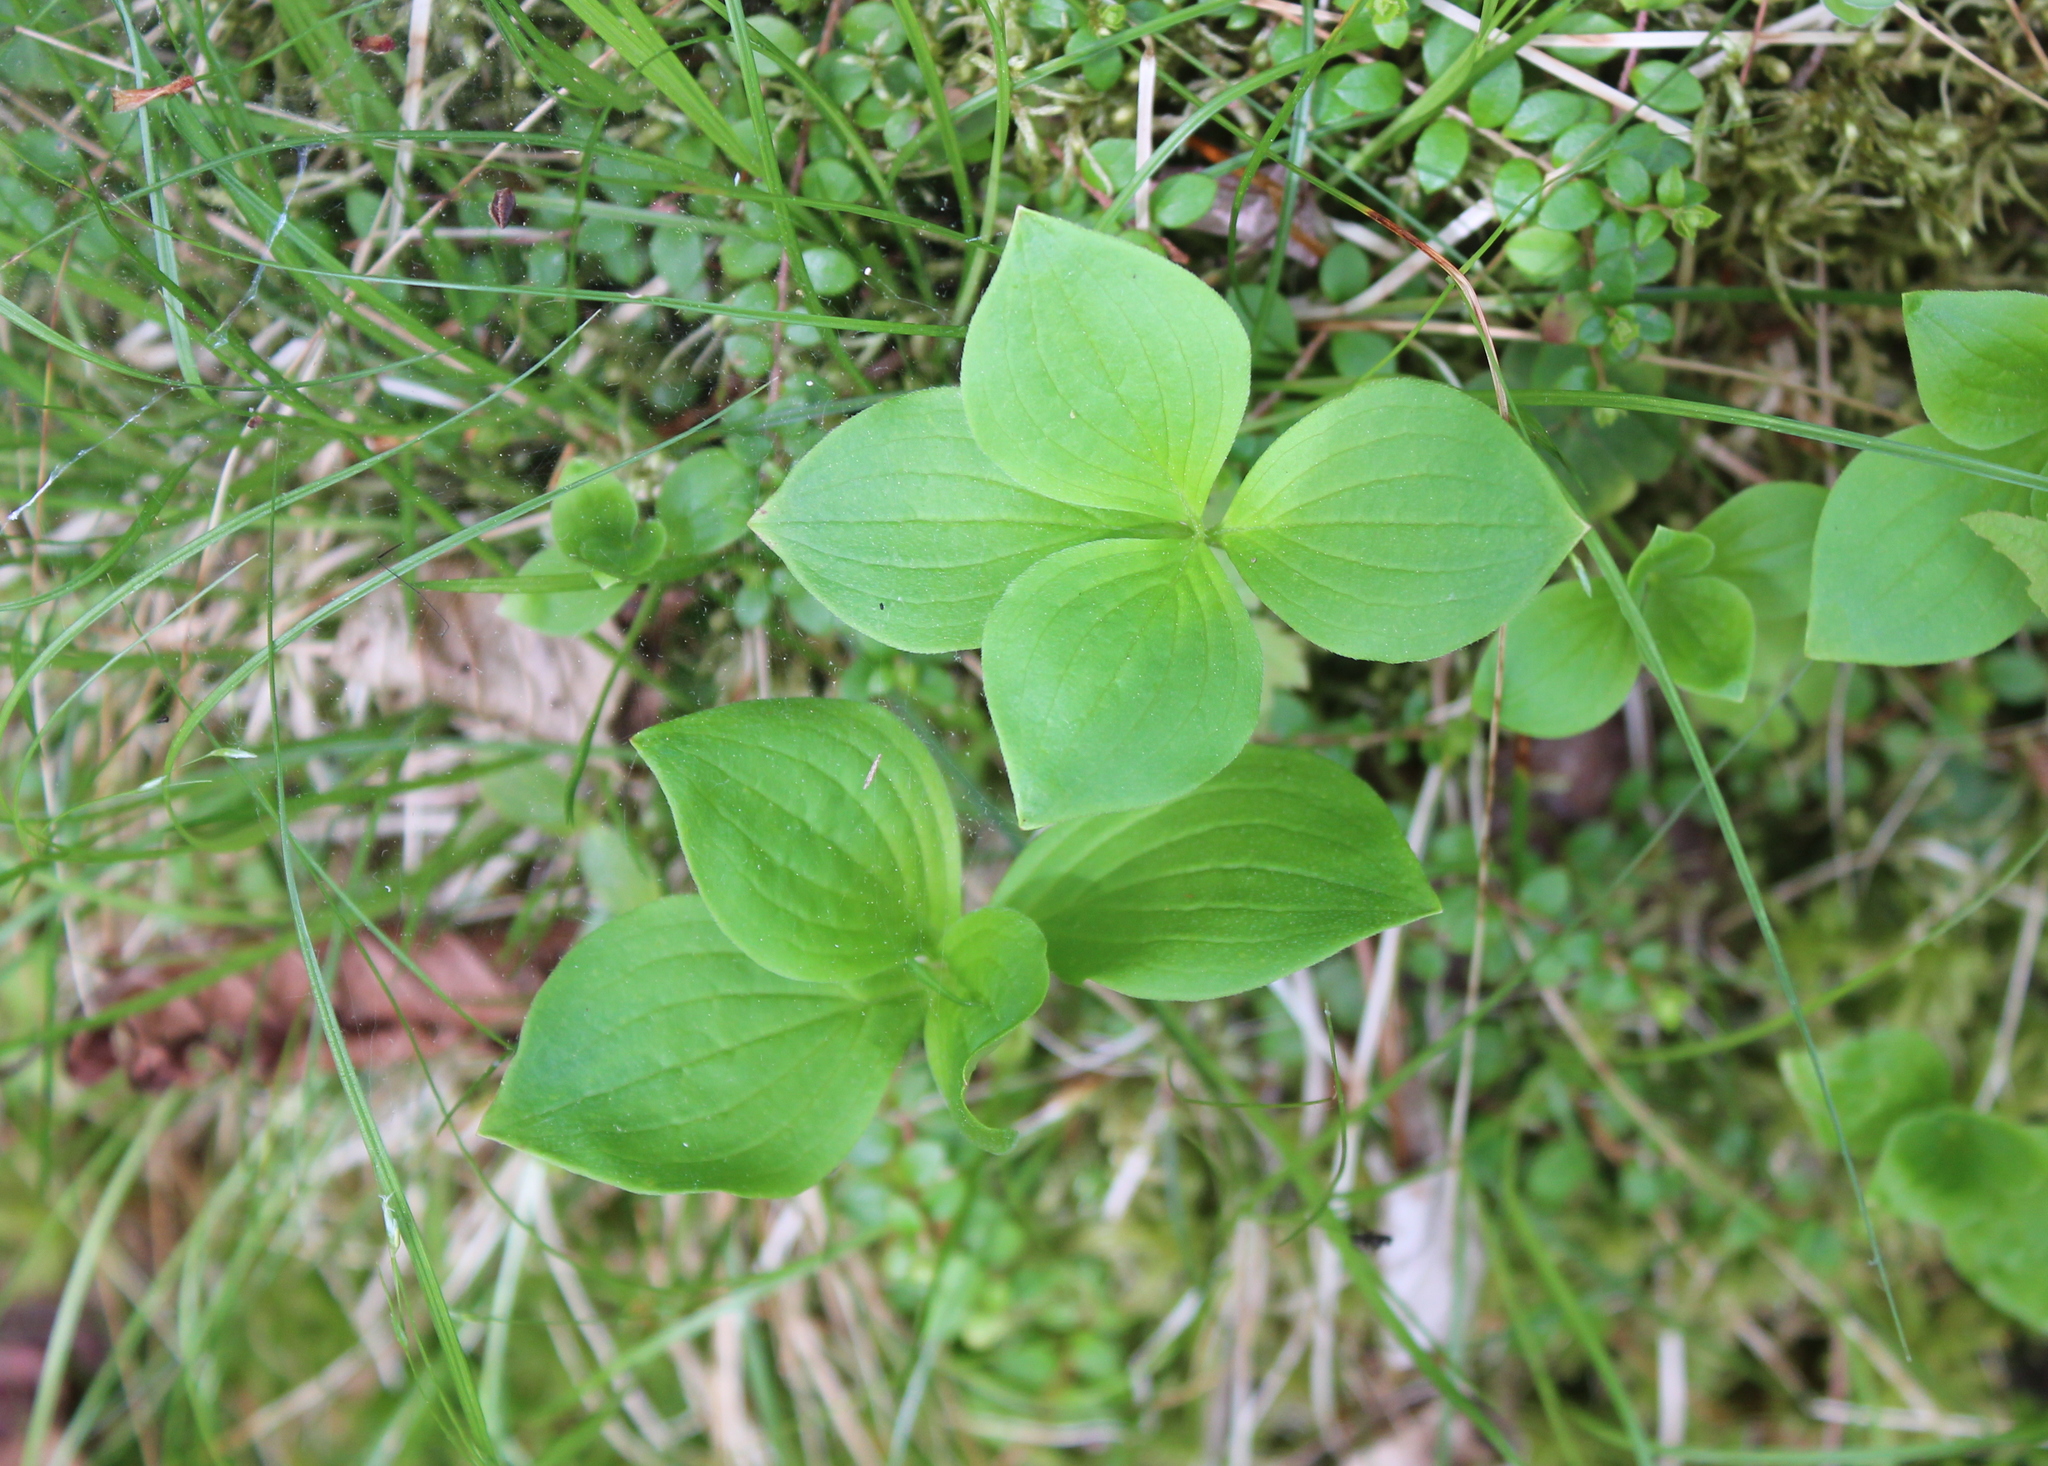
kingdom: Plantae
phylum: Tracheophyta
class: Magnoliopsida
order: Cornales
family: Cornaceae
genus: Cornus
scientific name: Cornus canadensis
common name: Creeping dogwood
